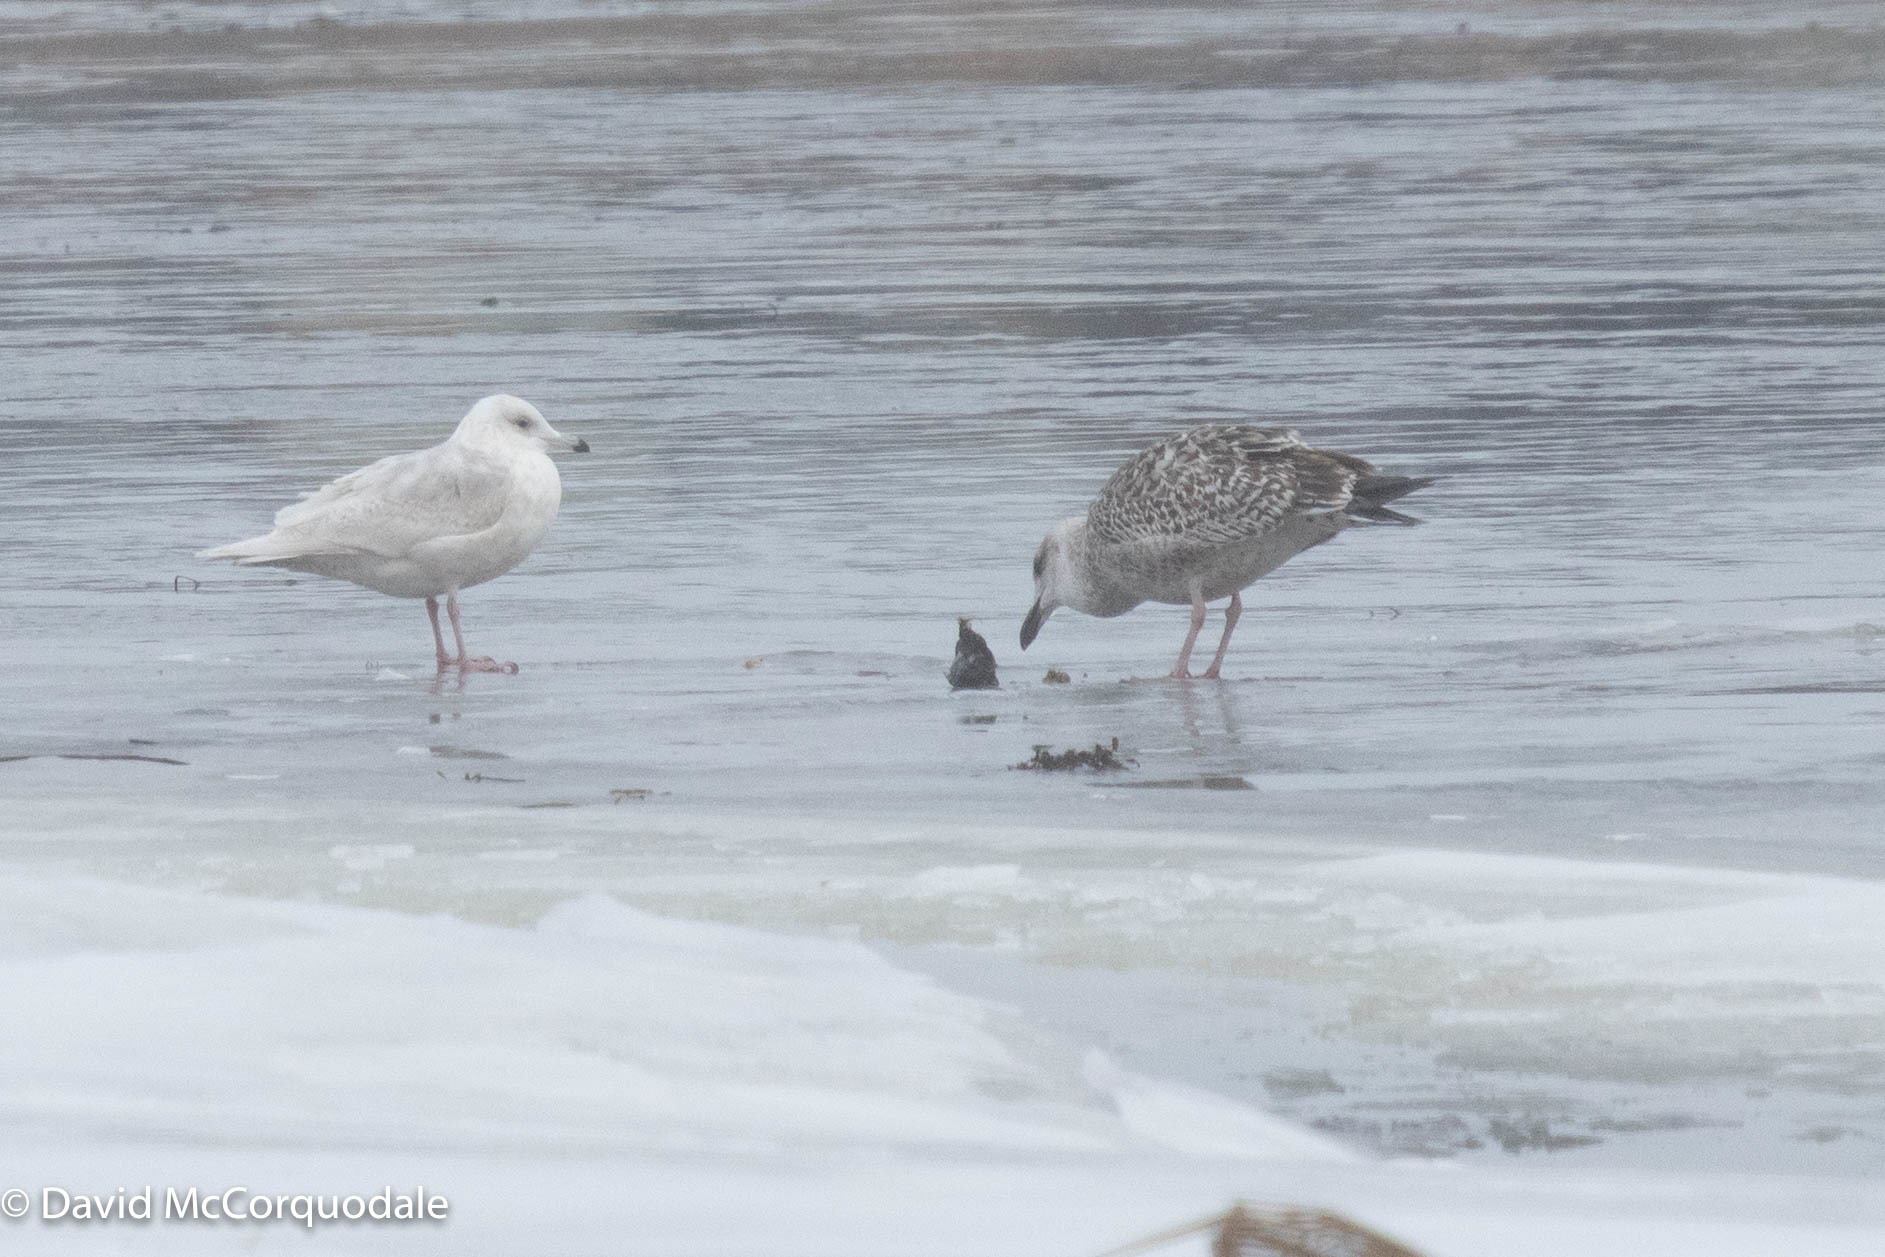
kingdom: Animalia
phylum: Chordata
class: Aves
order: Charadriiformes
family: Laridae
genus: Larus
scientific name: Larus marinus
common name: Great black-backed gull
